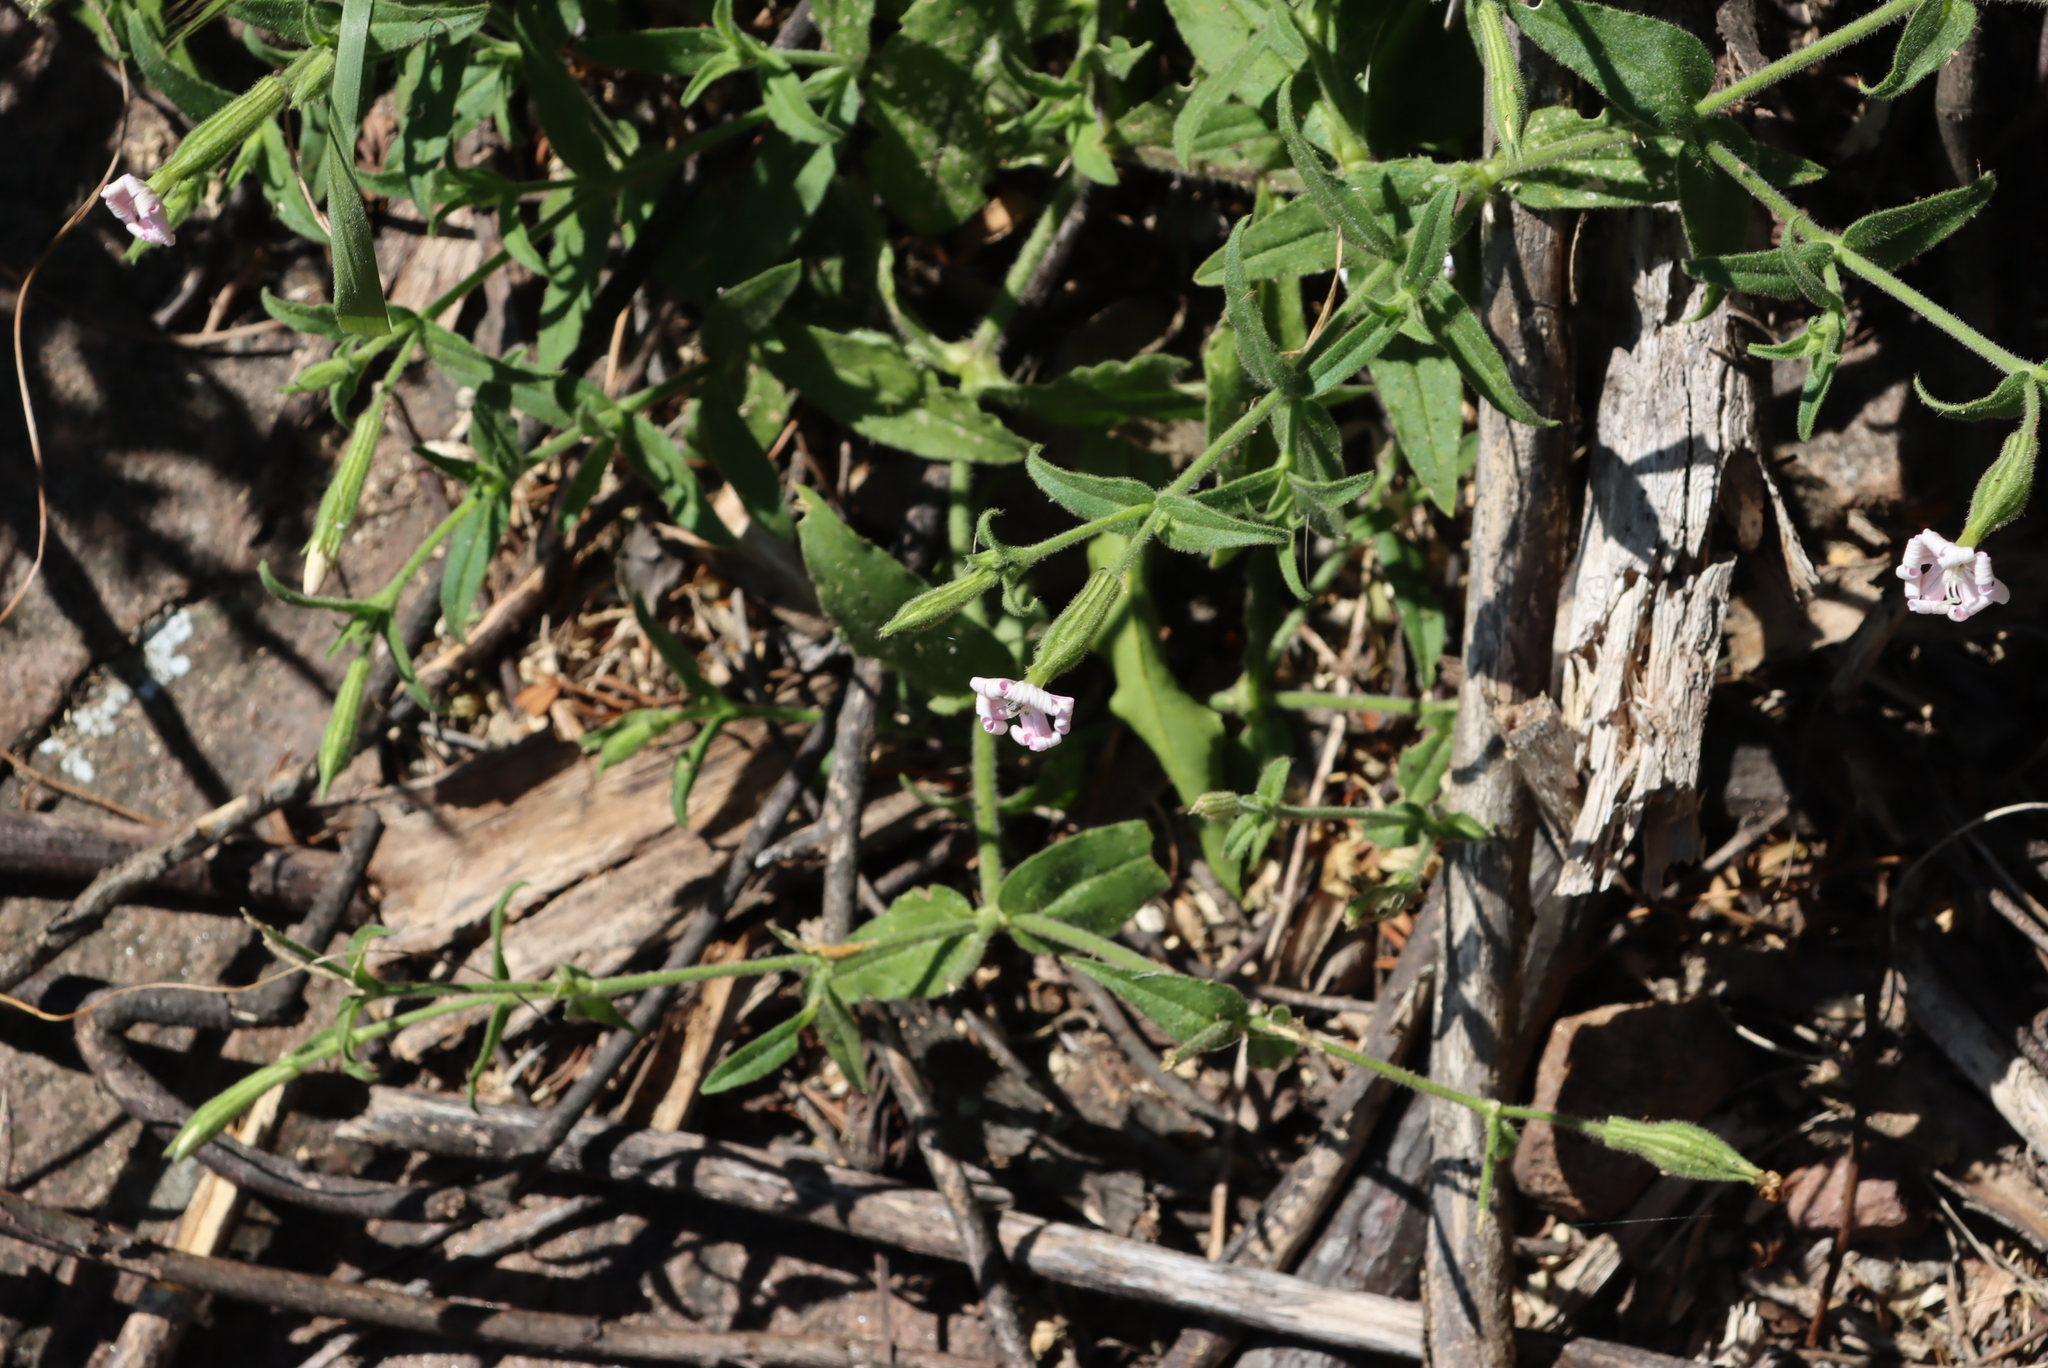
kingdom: Plantae
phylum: Tracheophyta
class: Magnoliopsida
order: Caryophyllales
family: Caryophyllaceae
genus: Silene
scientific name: Silene undulata
